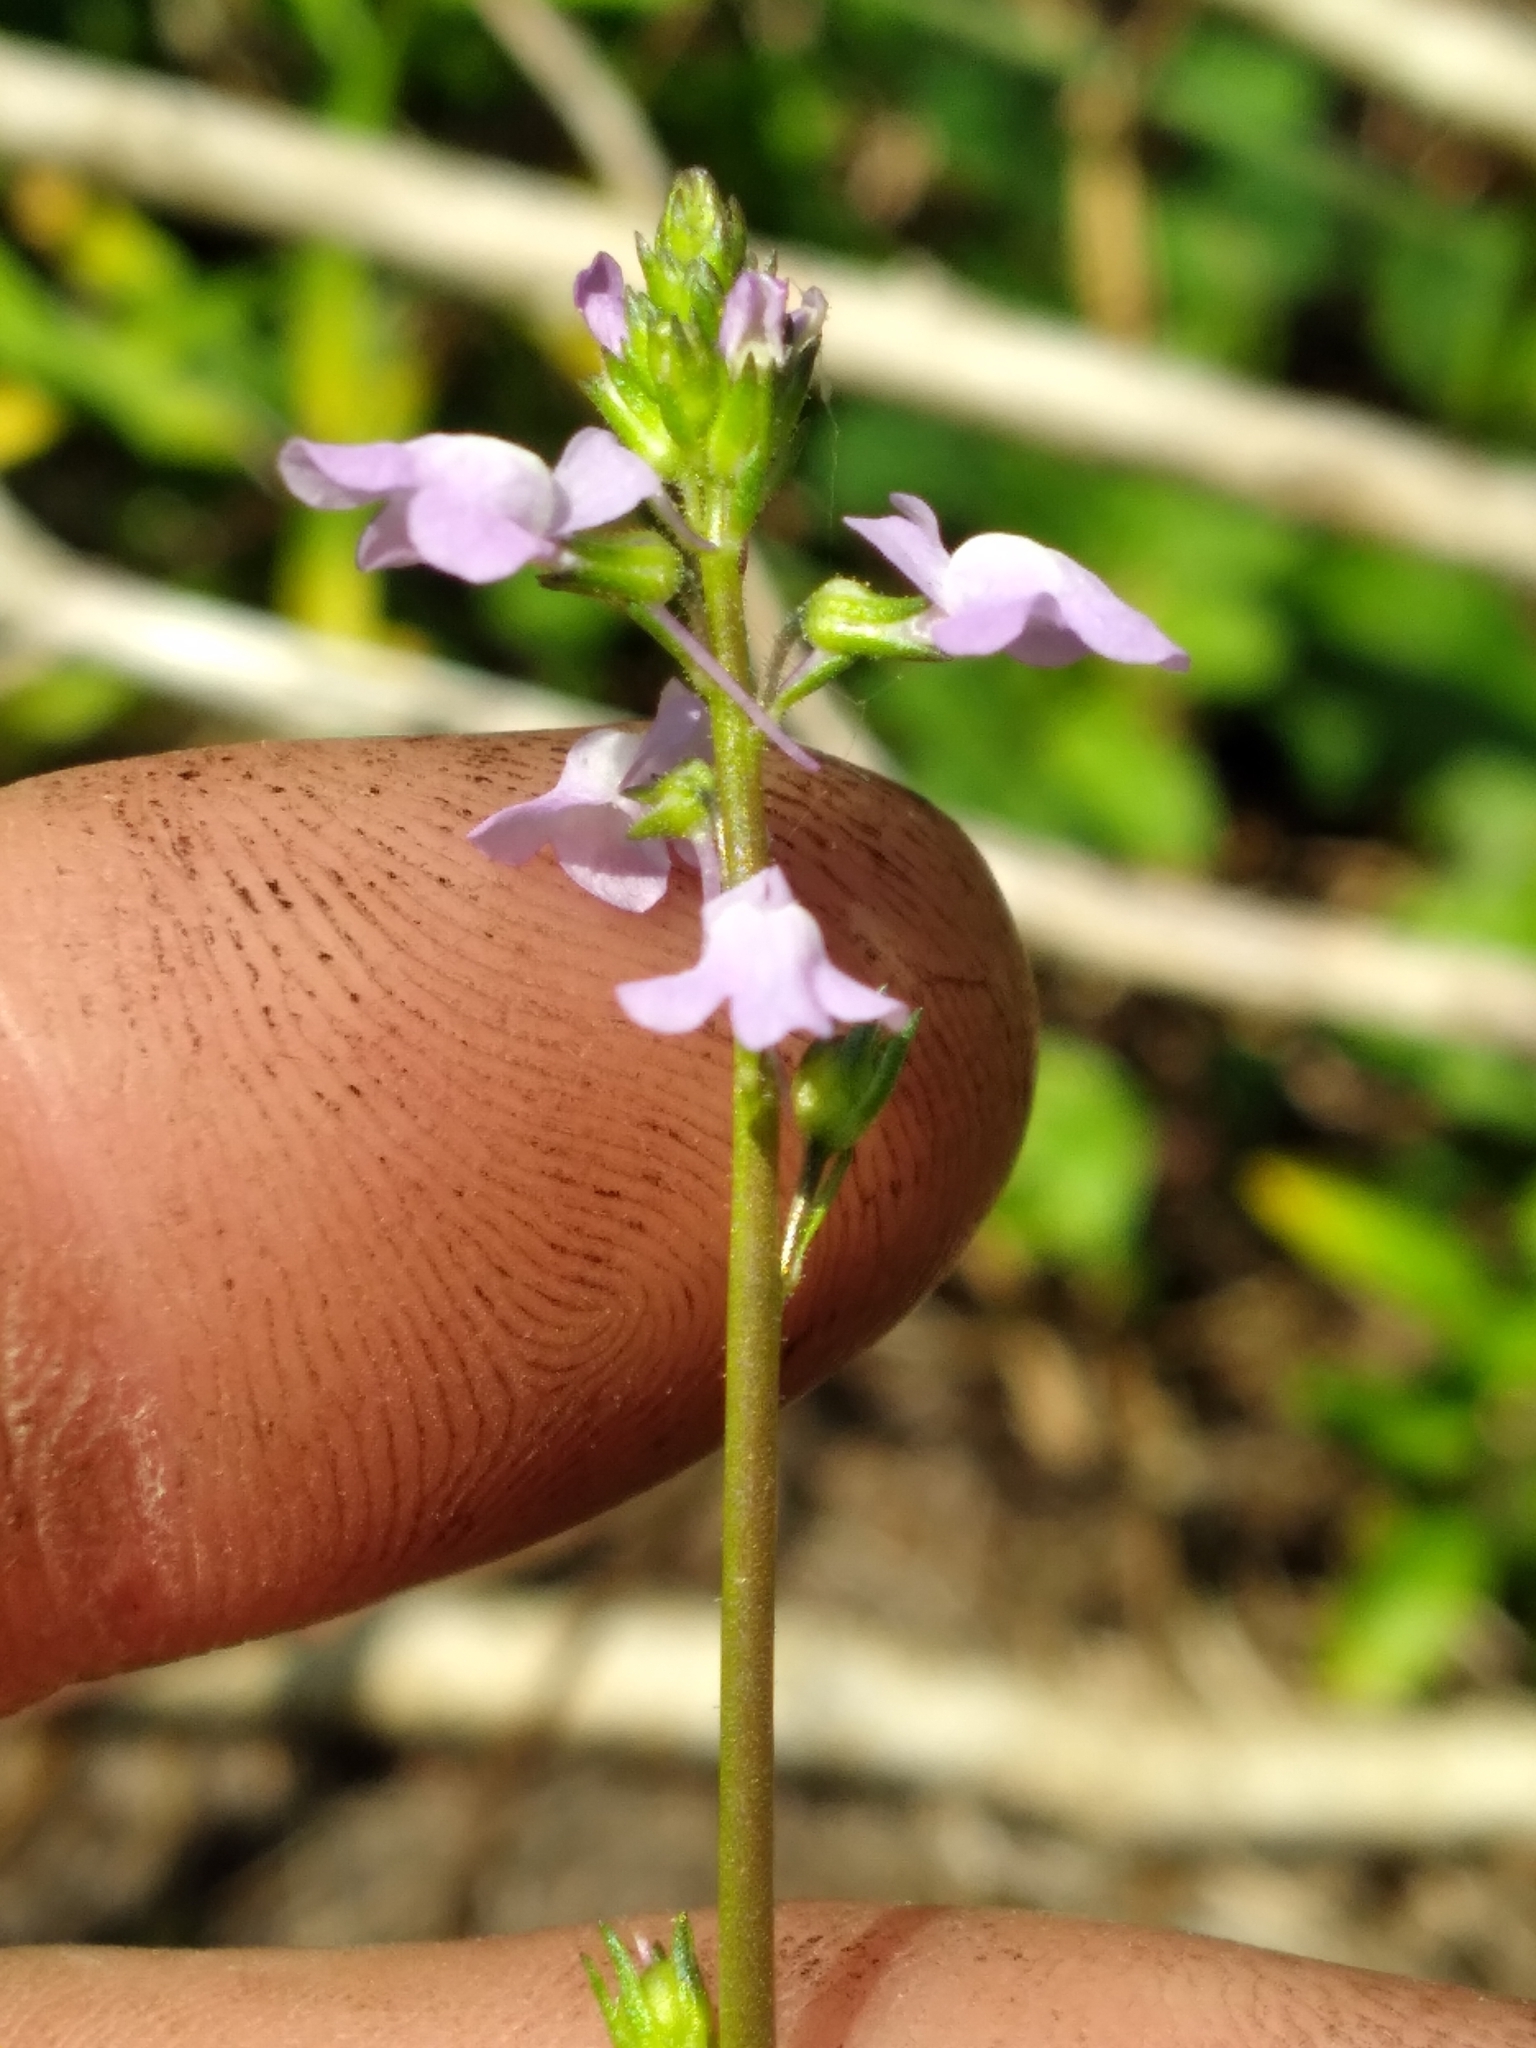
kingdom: Plantae
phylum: Tracheophyta
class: Magnoliopsida
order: Lamiales
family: Plantaginaceae
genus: Nuttallanthus
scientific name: Nuttallanthus canadensis
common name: Blue toadflax
